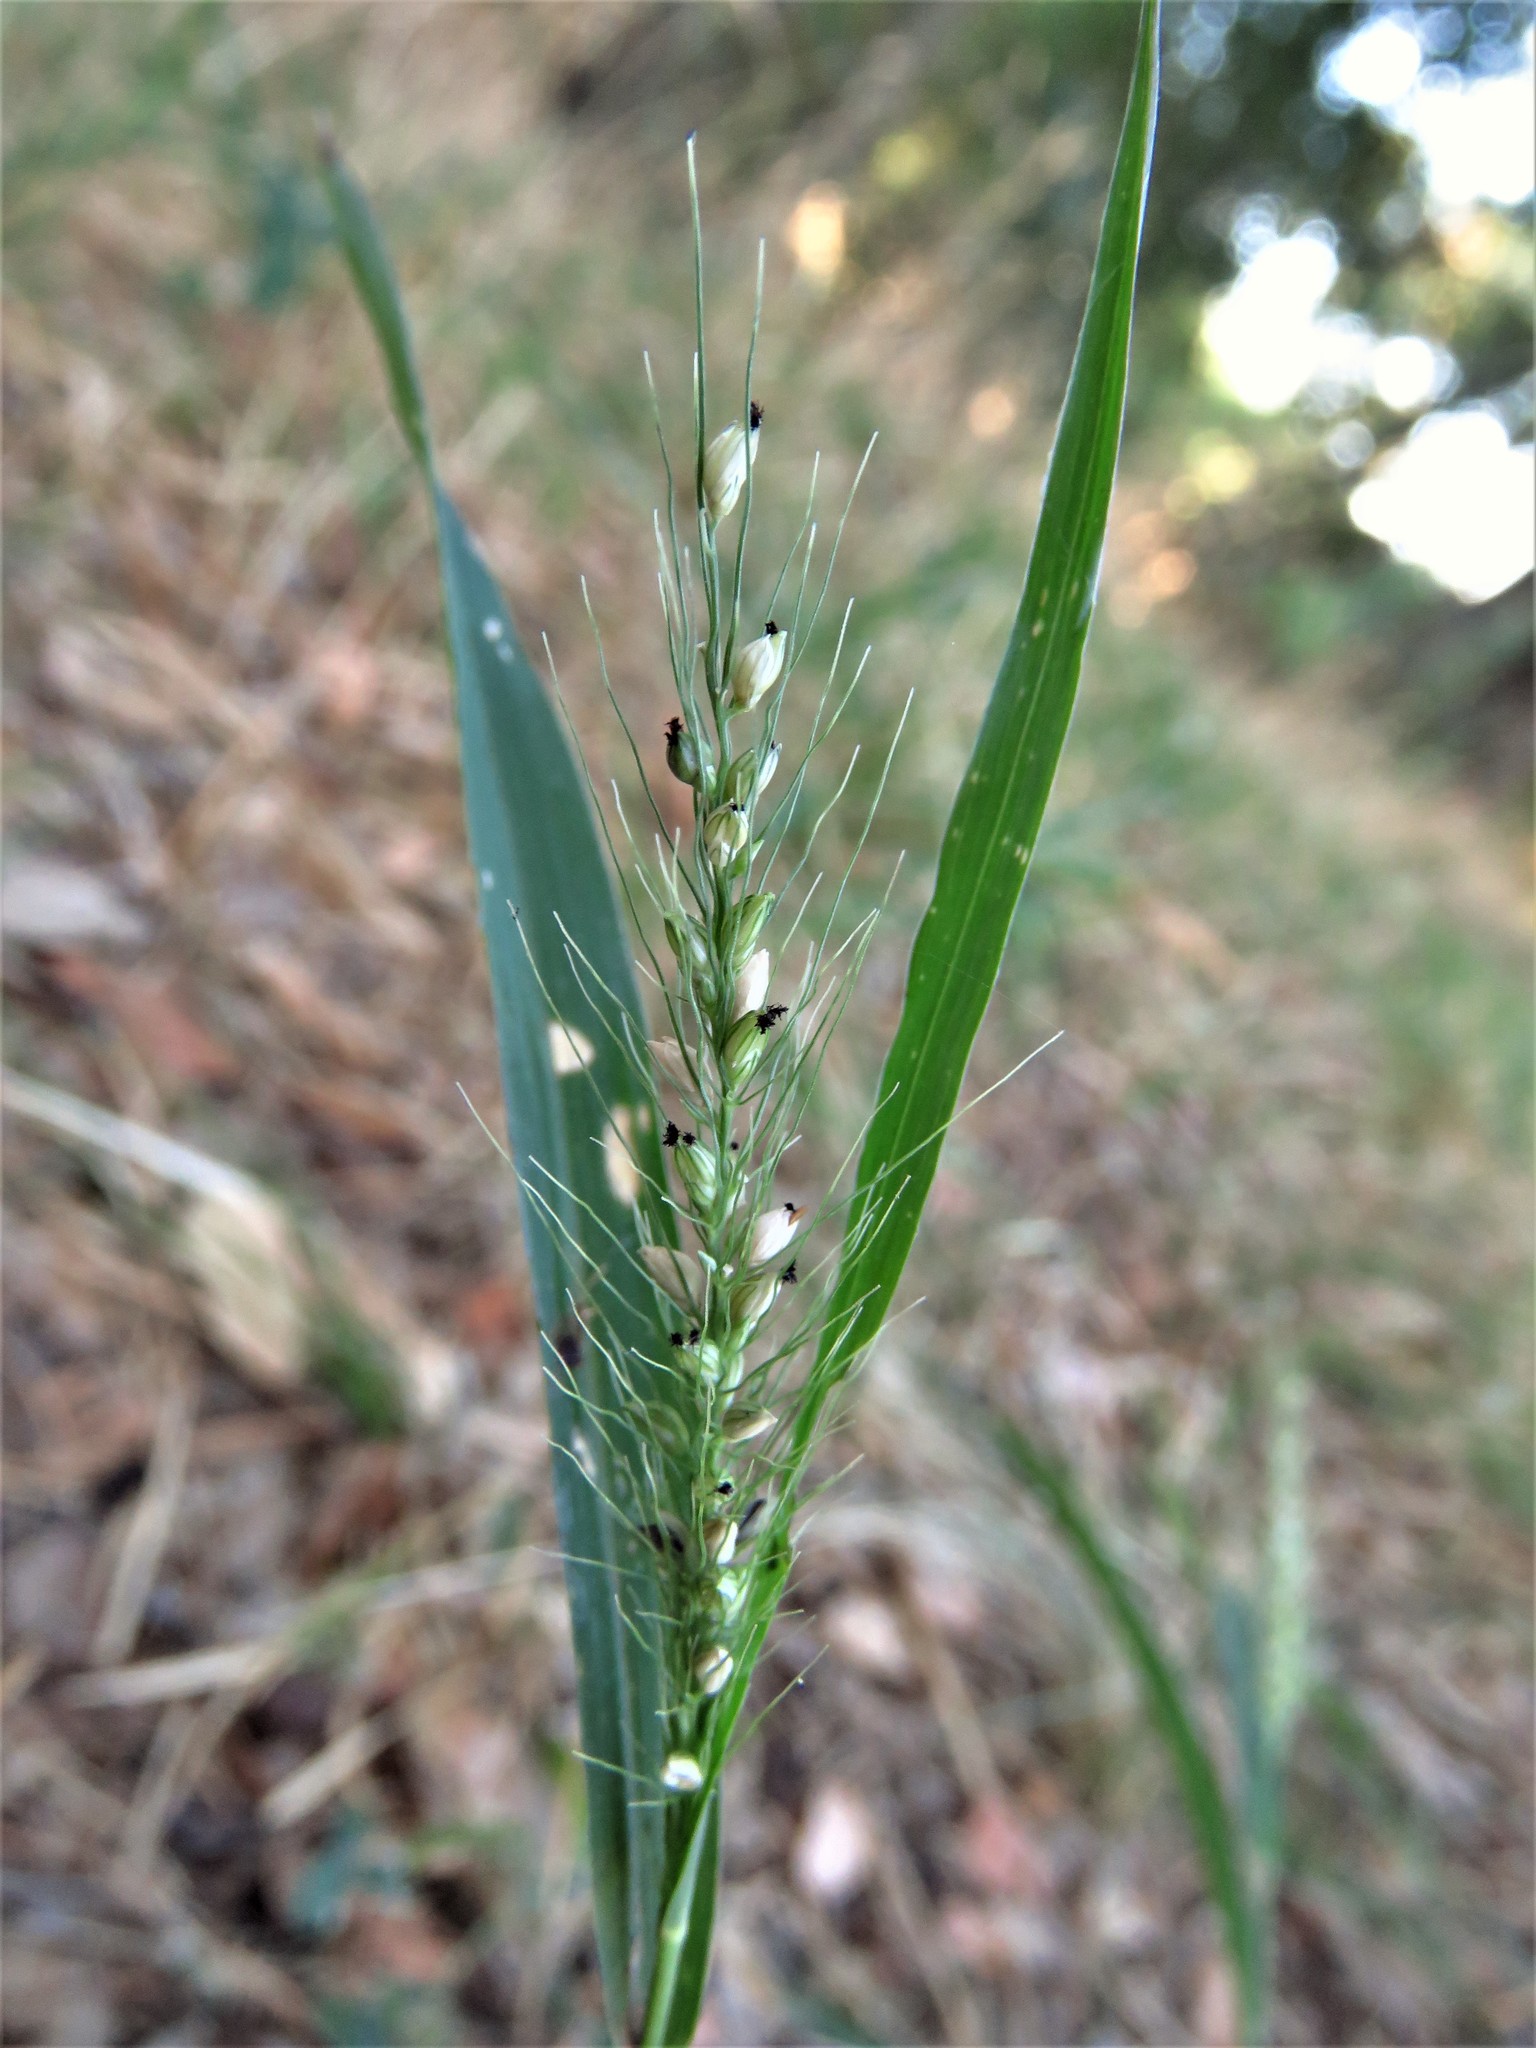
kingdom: Plantae
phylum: Tracheophyta
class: Liliopsida
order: Poales
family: Poaceae
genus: Setaria
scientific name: Setaria scheelei
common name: Southwestern bristle grass
